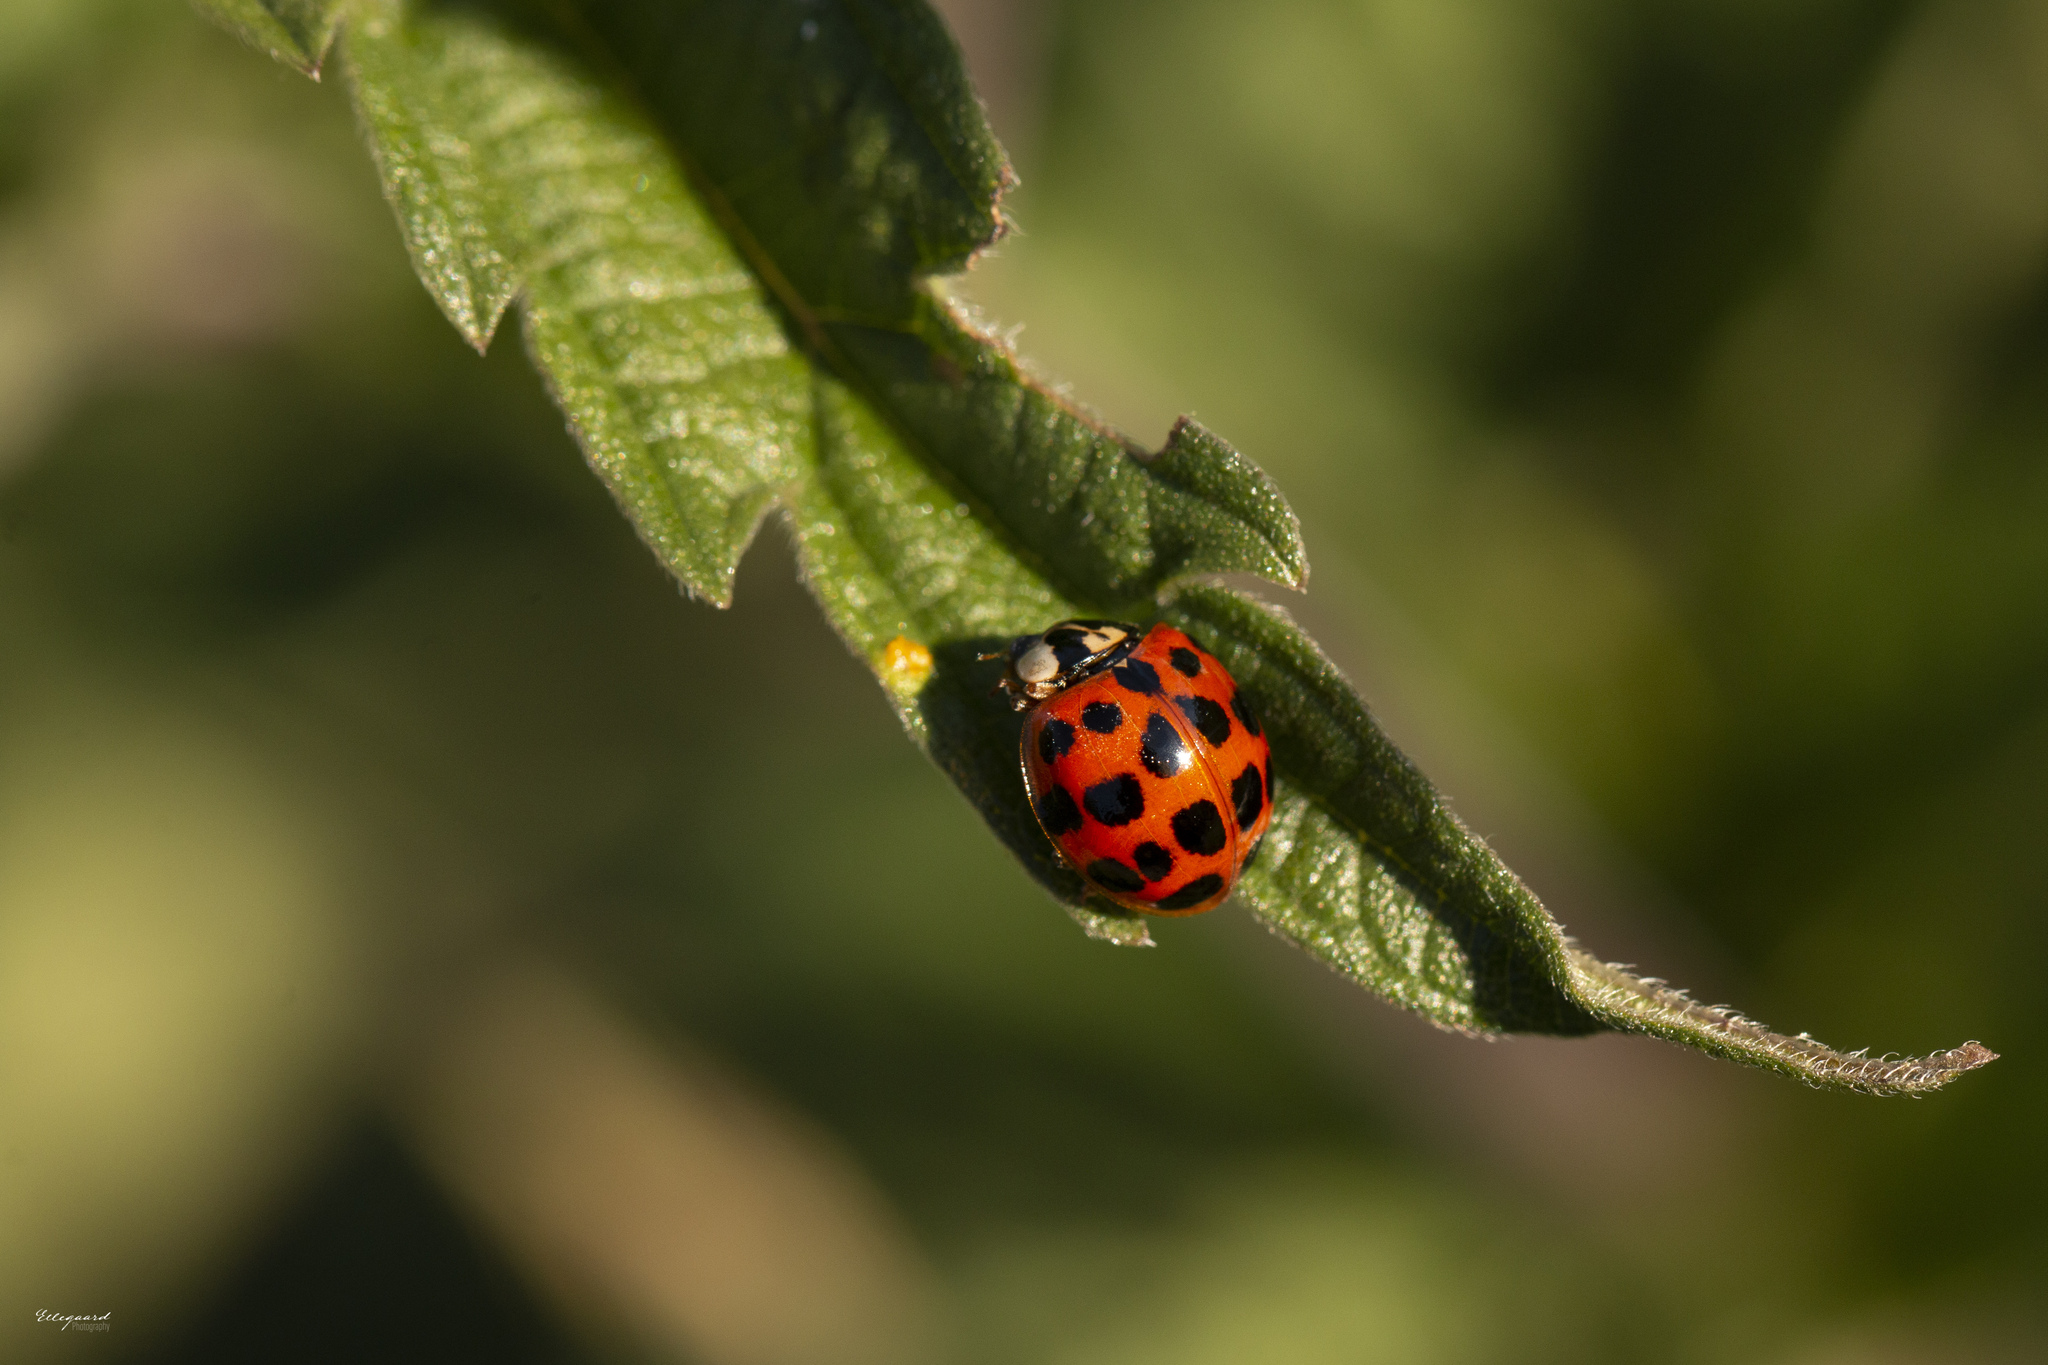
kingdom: Animalia
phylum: Arthropoda
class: Insecta
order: Coleoptera
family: Coccinellidae
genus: Harmonia
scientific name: Harmonia axyridis
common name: Harlequin ladybird
